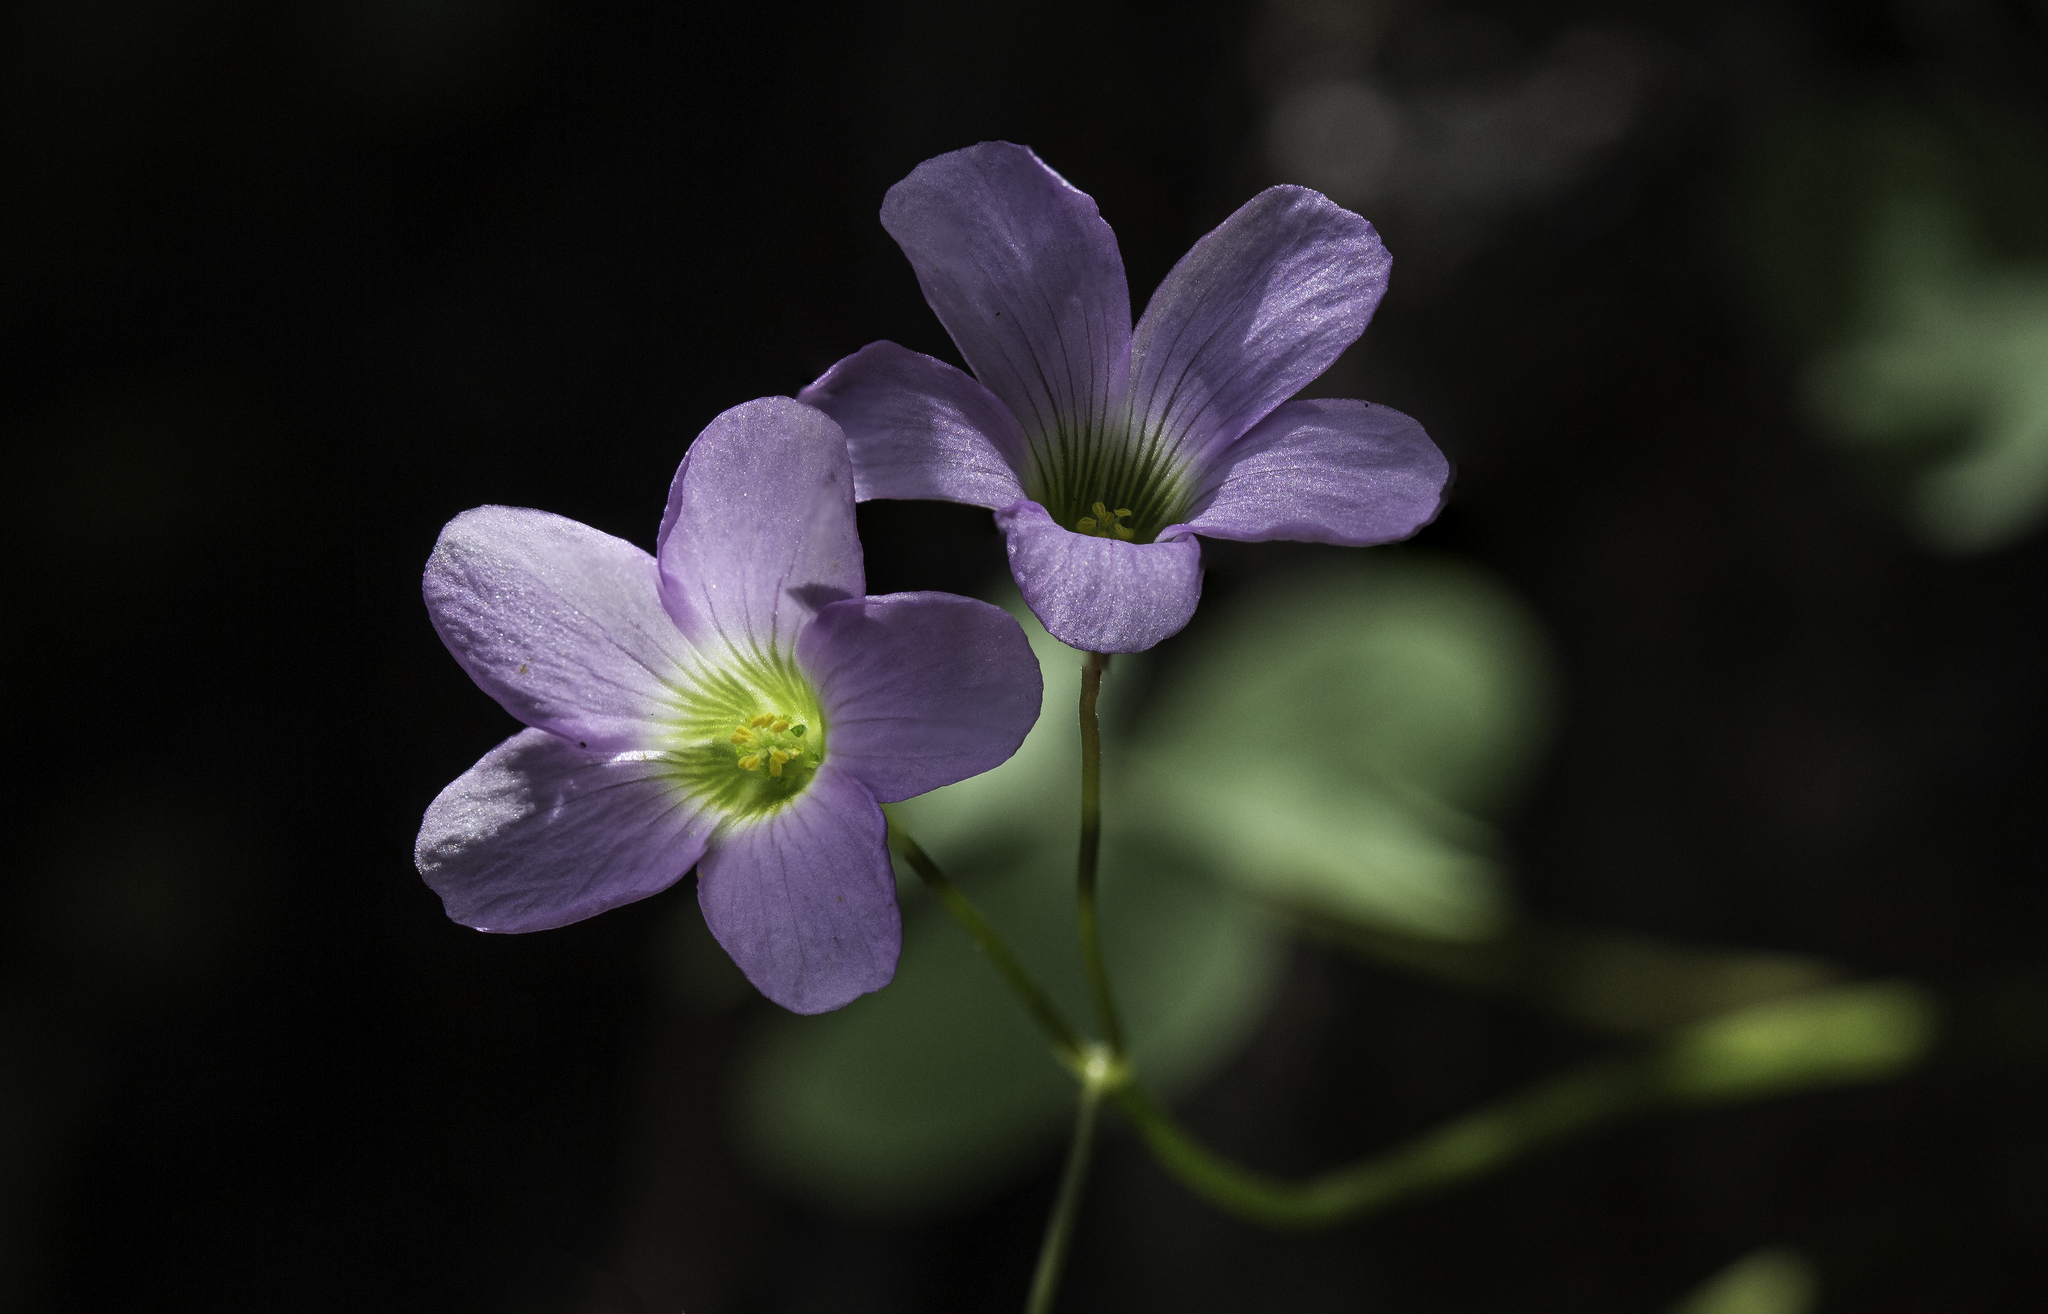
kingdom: Plantae
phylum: Tracheophyta
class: Magnoliopsida
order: Oxalidales
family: Oxalidaceae
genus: Oxalis
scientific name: Oxalis metcalfei
